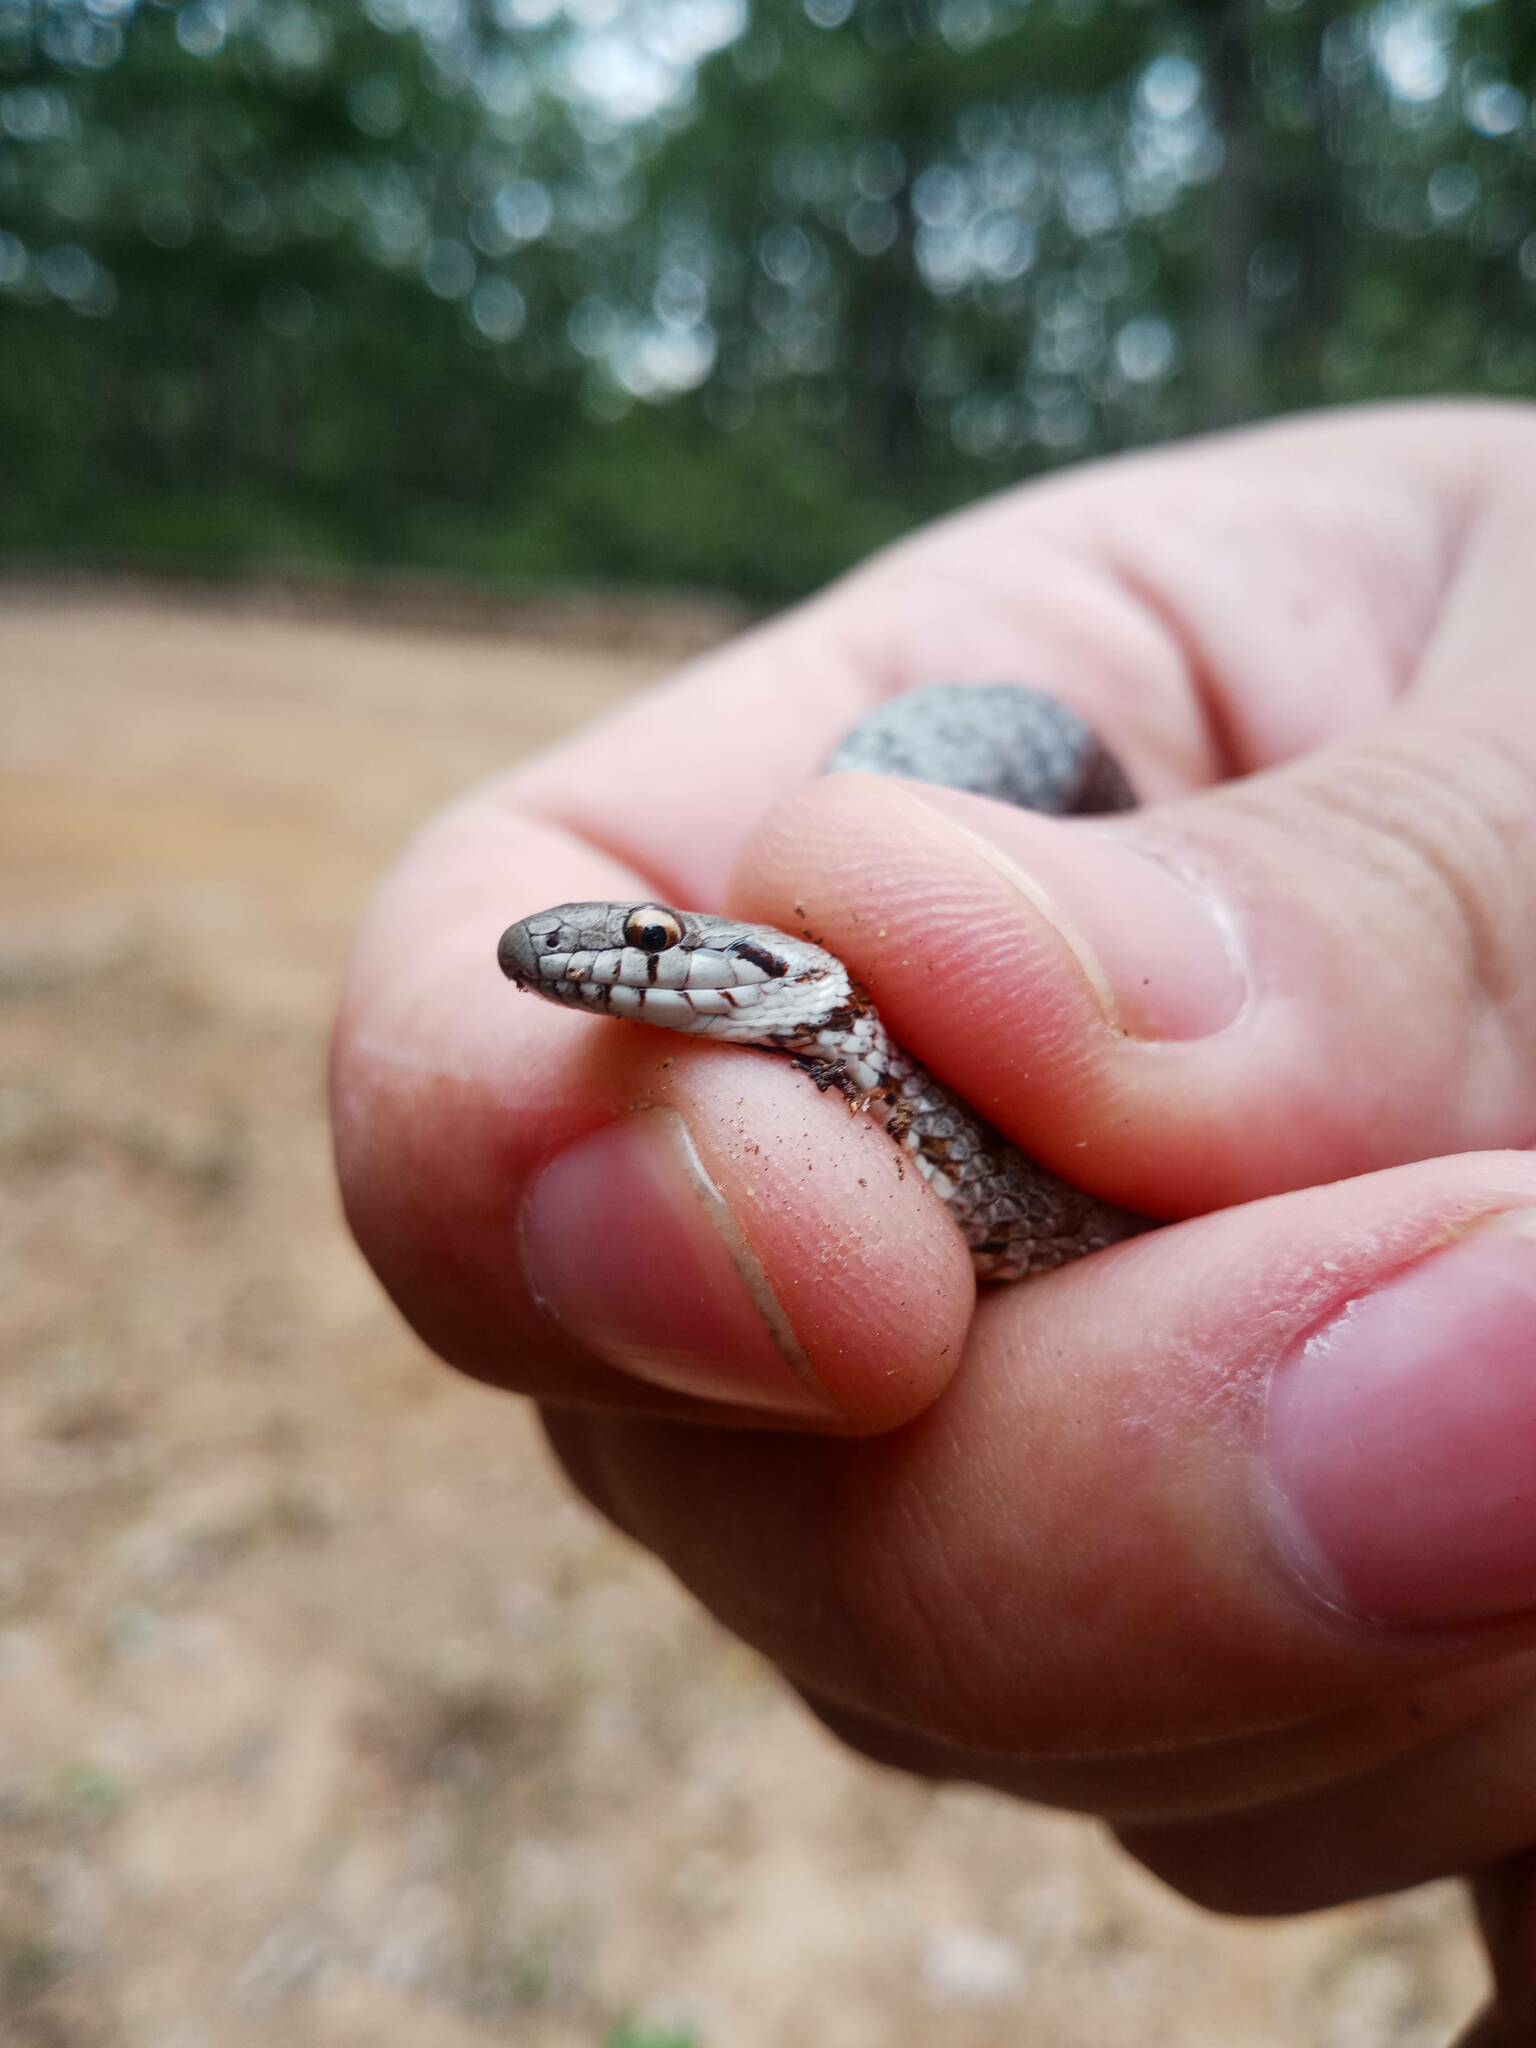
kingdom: Animalia
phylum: Chordata
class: Squamata
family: Colubridae
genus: Coronella
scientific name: Coronella girondica
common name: Southern smooth snake
